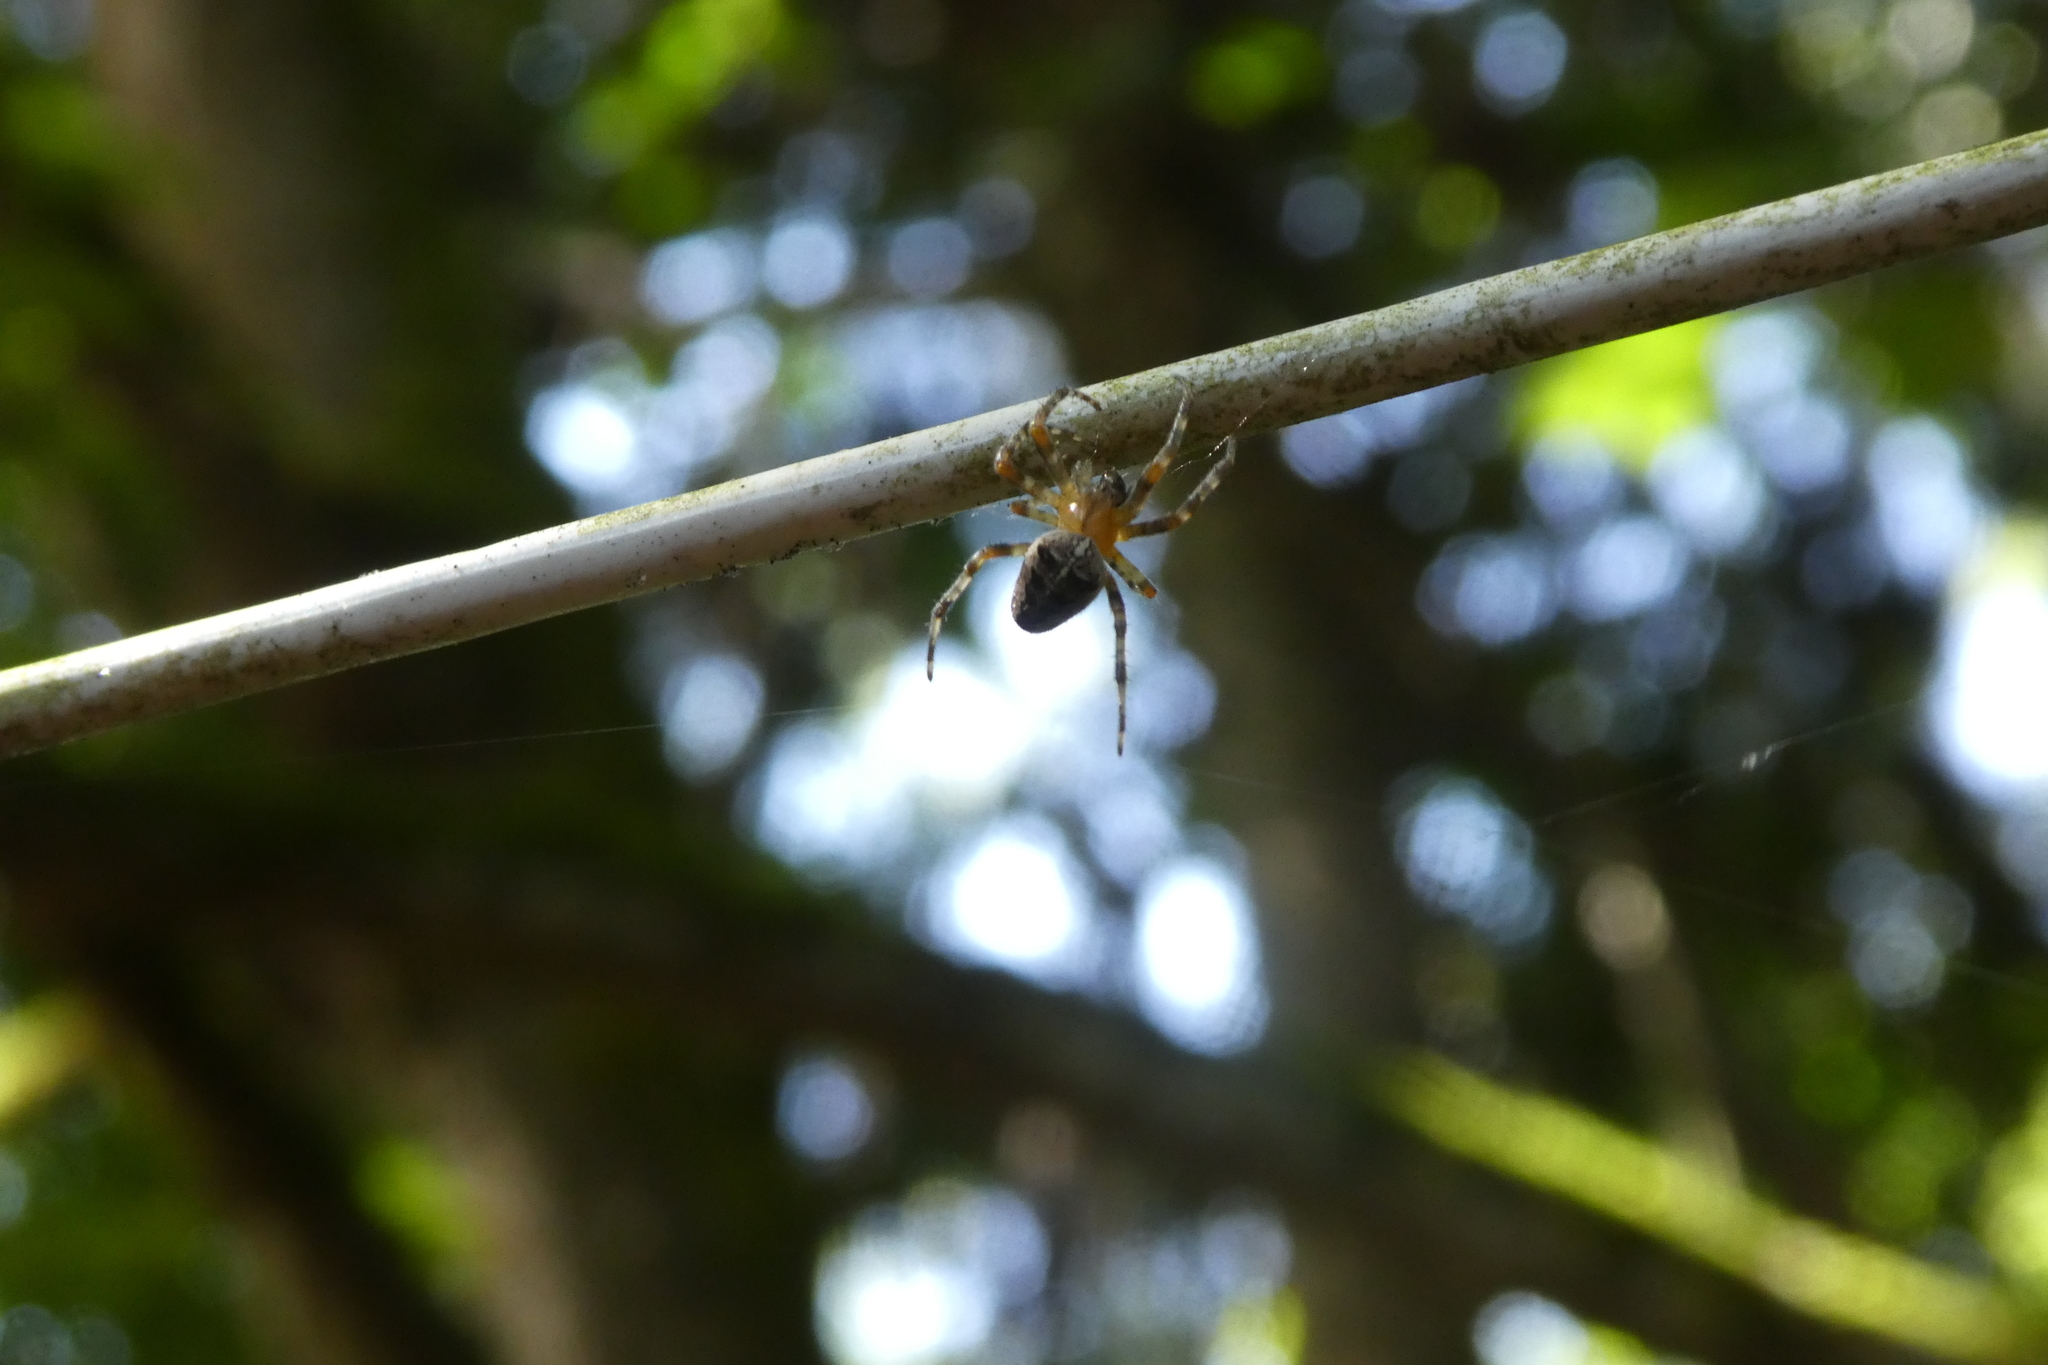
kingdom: Animalia
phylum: Arthropoda
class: Arachnida
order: Araneae
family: Araneidae
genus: Araneus
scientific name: Araneus diadematus
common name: Cross orbweaver
